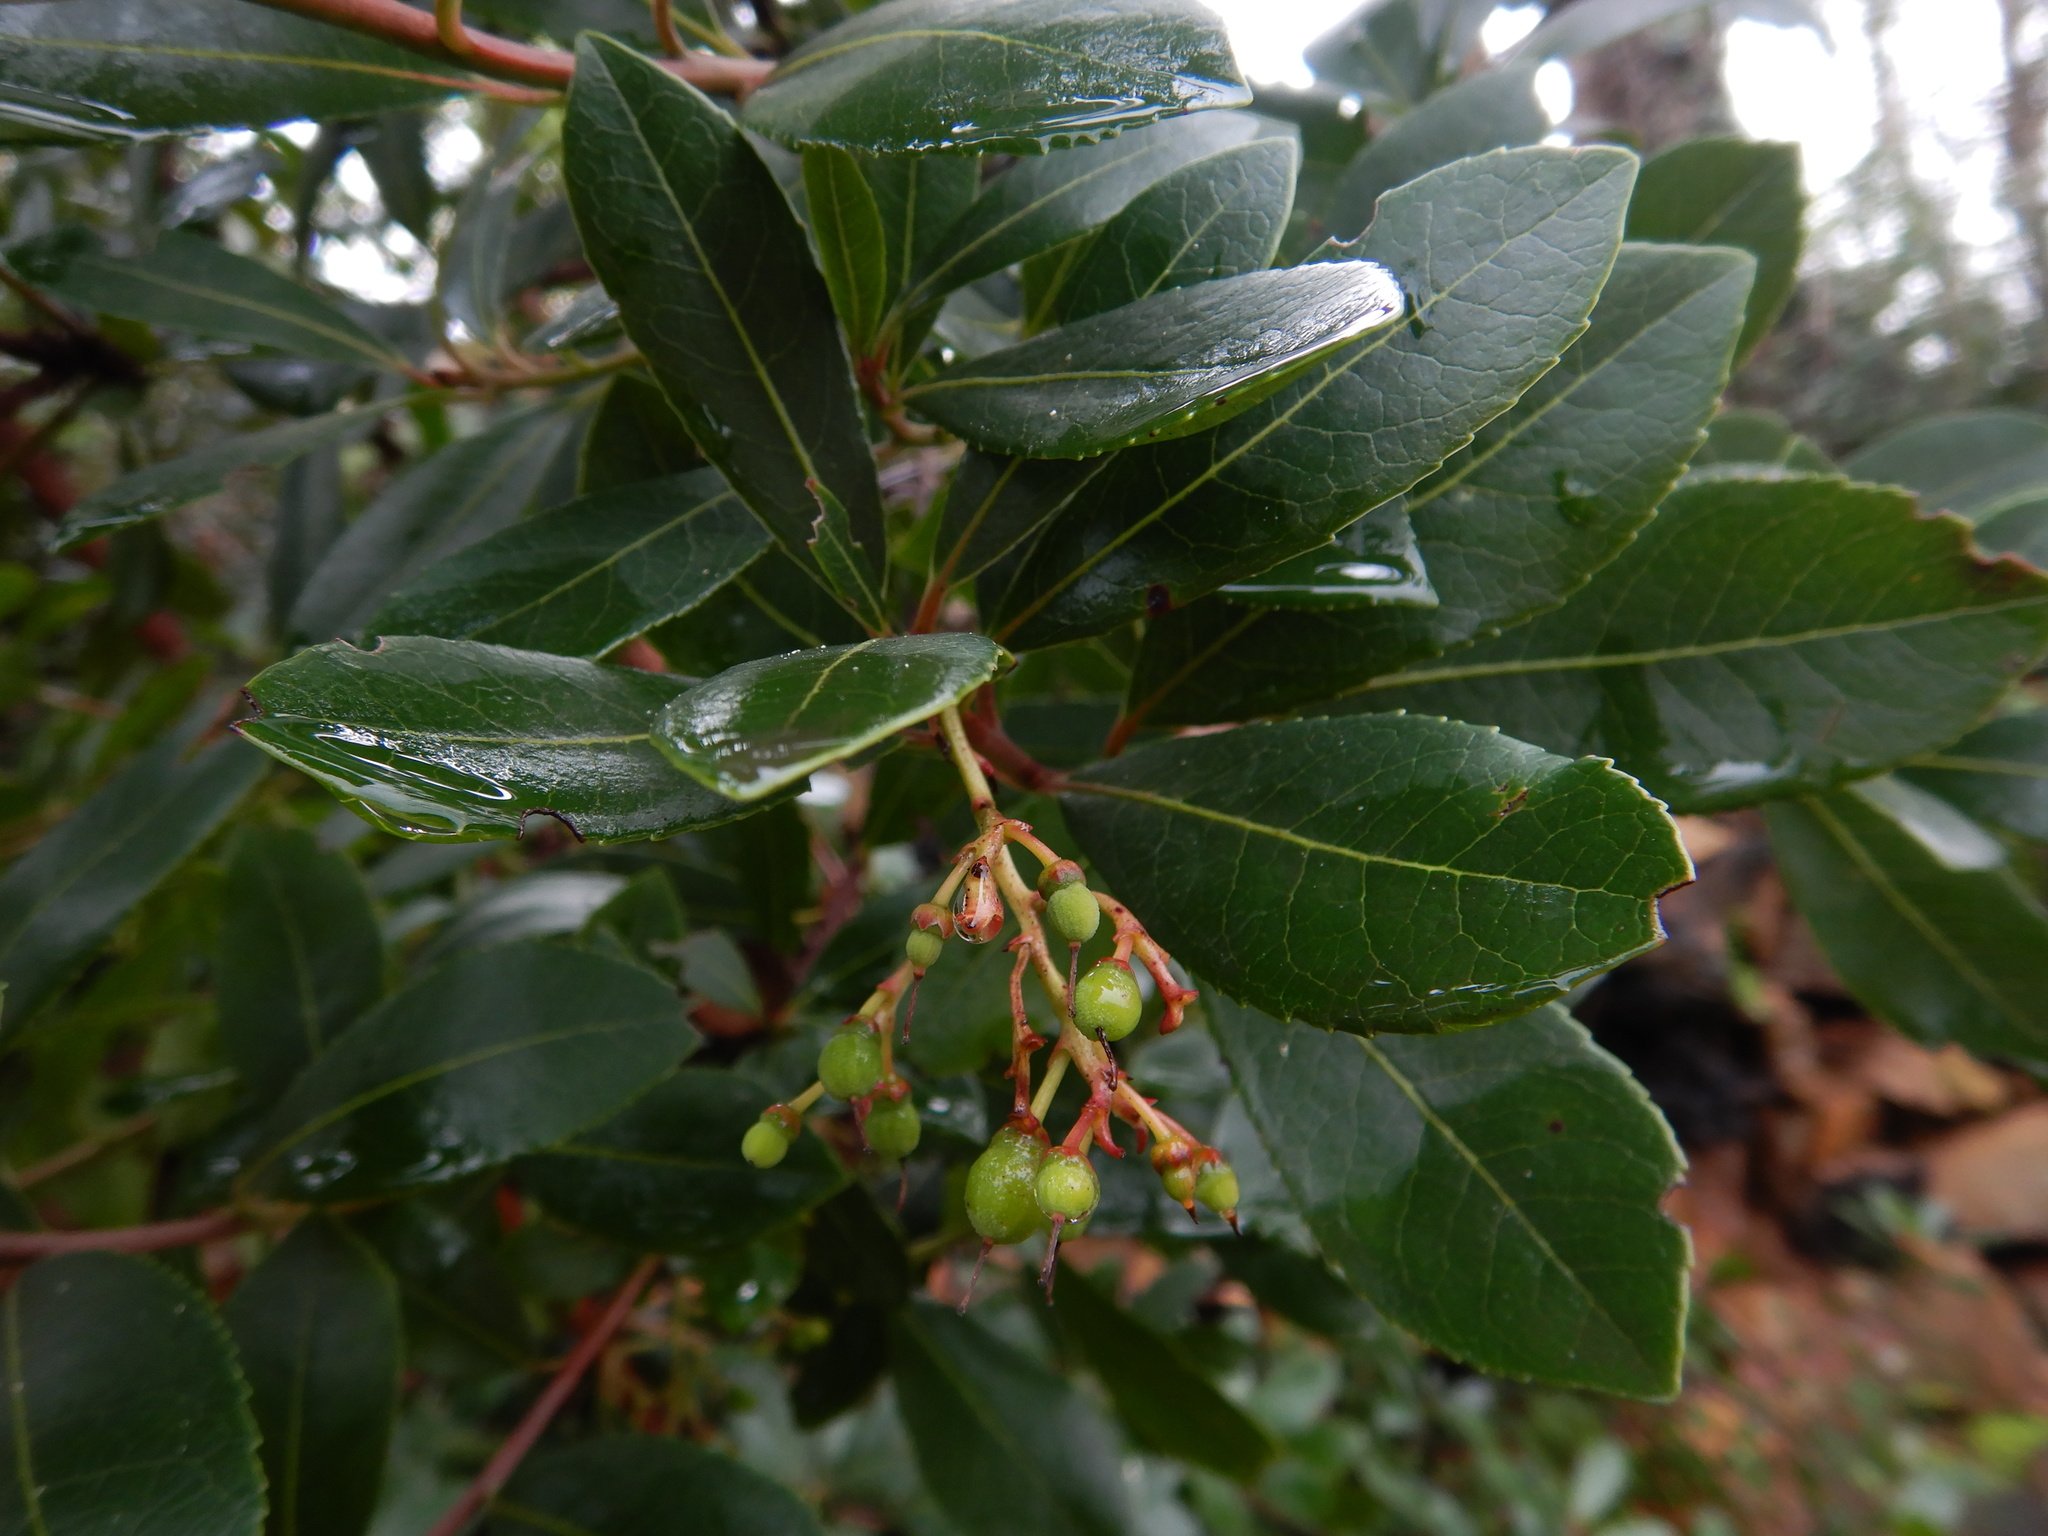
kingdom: Plantae
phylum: Tracheophyta
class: Magnoliopsida
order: Ericales
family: Ericaceae
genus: Arbutus
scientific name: Arbutus unedo
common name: Strawberry-tree
